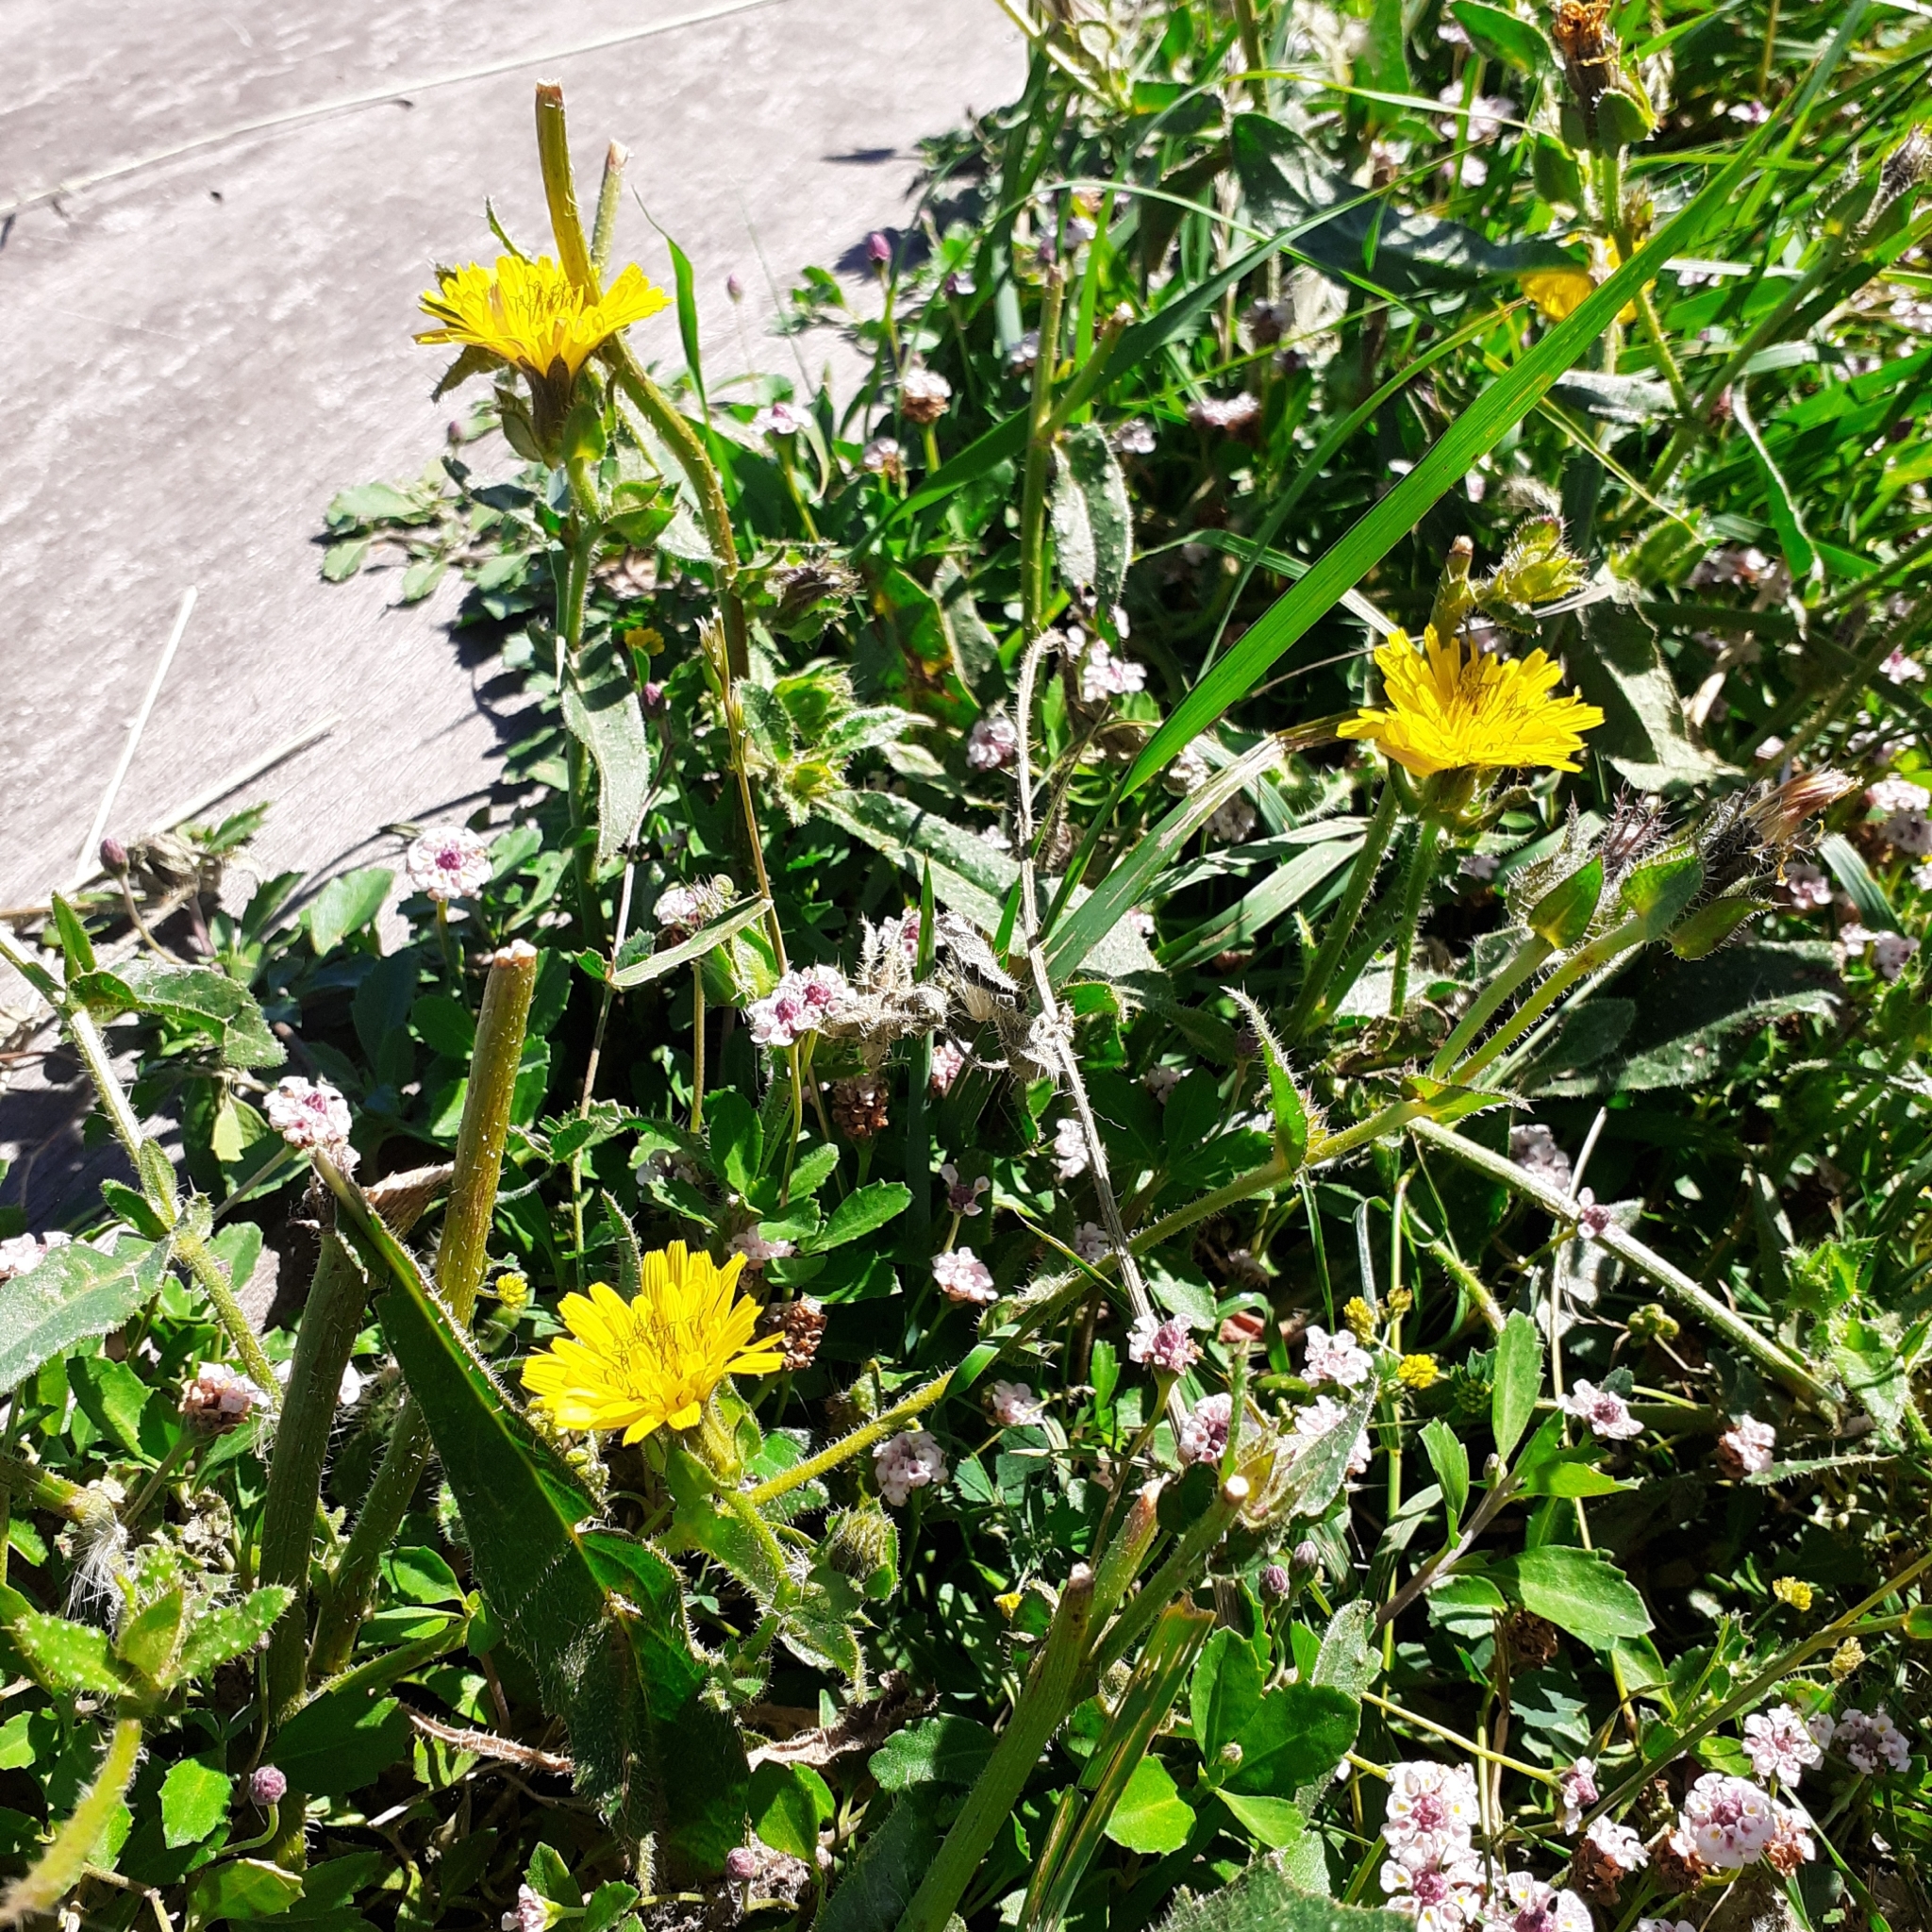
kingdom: Plantae
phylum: Tracheophyta
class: Magnoliopsida
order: Asterales
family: Asteraceae
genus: Helminthotheca
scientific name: Helminthotheca echioides
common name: Ox-tongue
